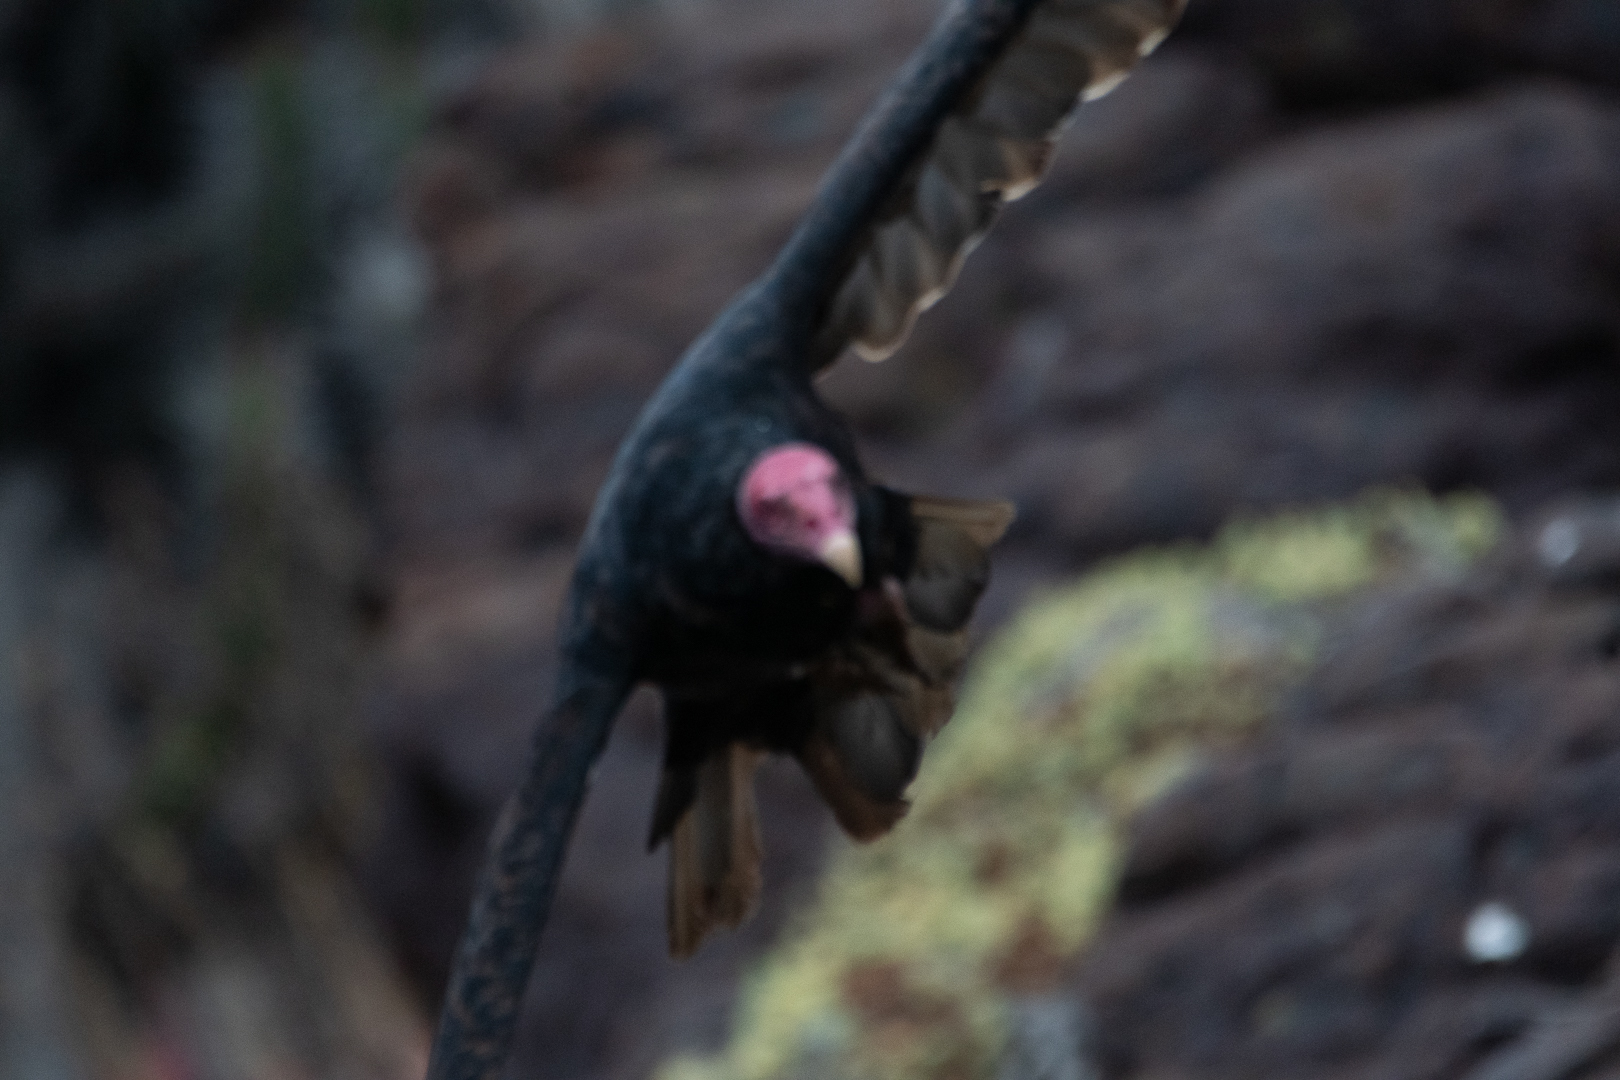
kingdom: Animalia
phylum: Chordata
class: Aves
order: Accipitriformes
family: Cathartidae
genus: Cathartes
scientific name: Cathartes aura
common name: Turkey vulture
